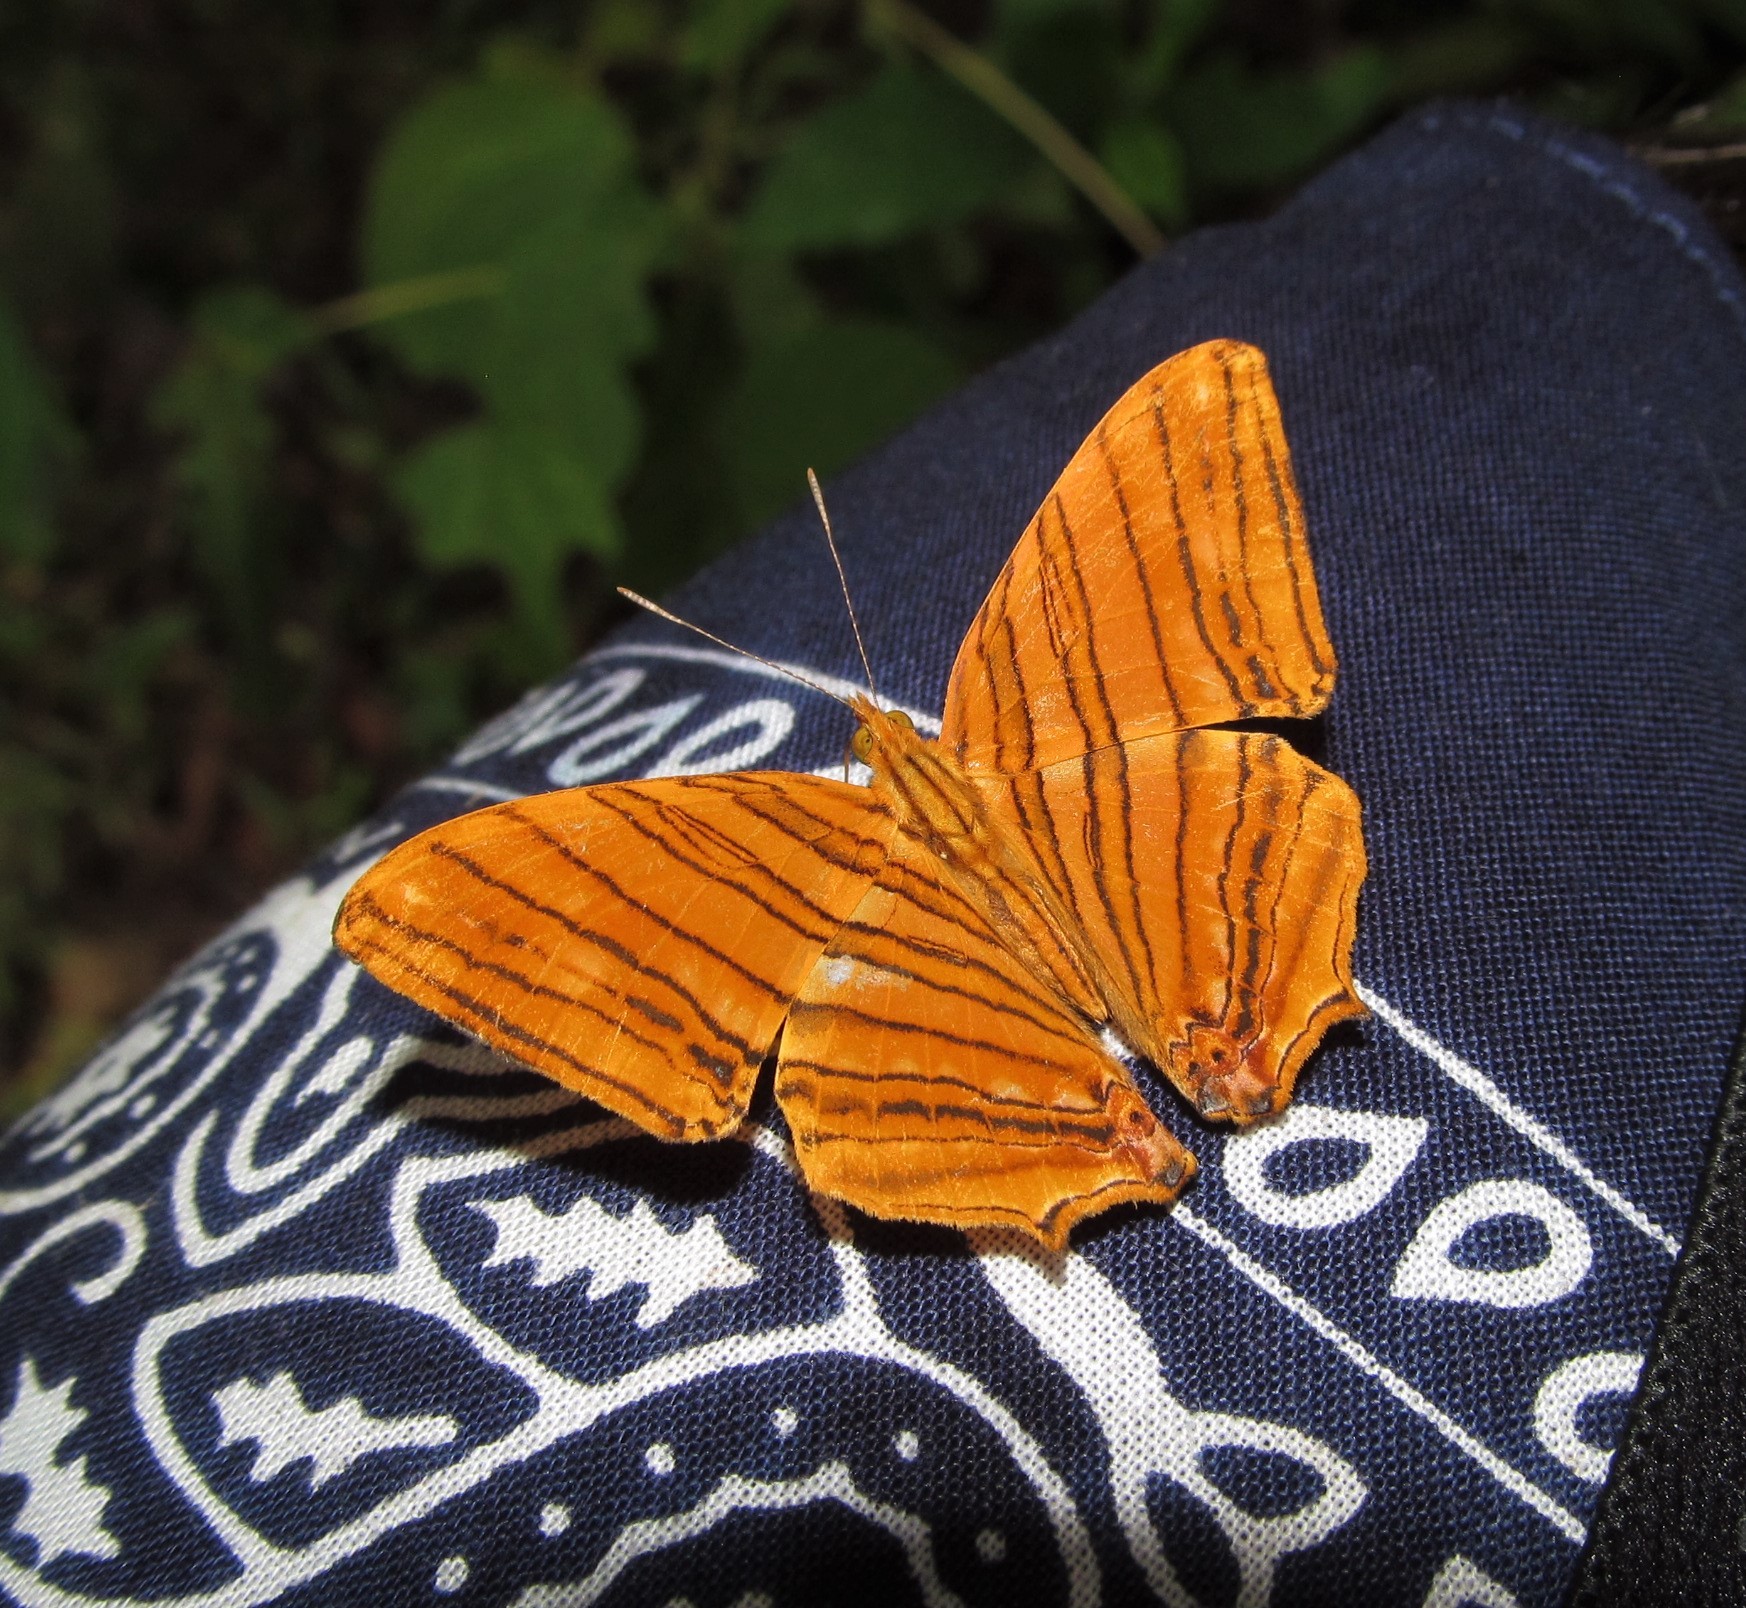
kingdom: Animalia
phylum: Arthropoda
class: Insecta
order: Lepidoptera
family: Nymphalidae
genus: Chersonesia
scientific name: Chersonesia risa
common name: Common maplet
